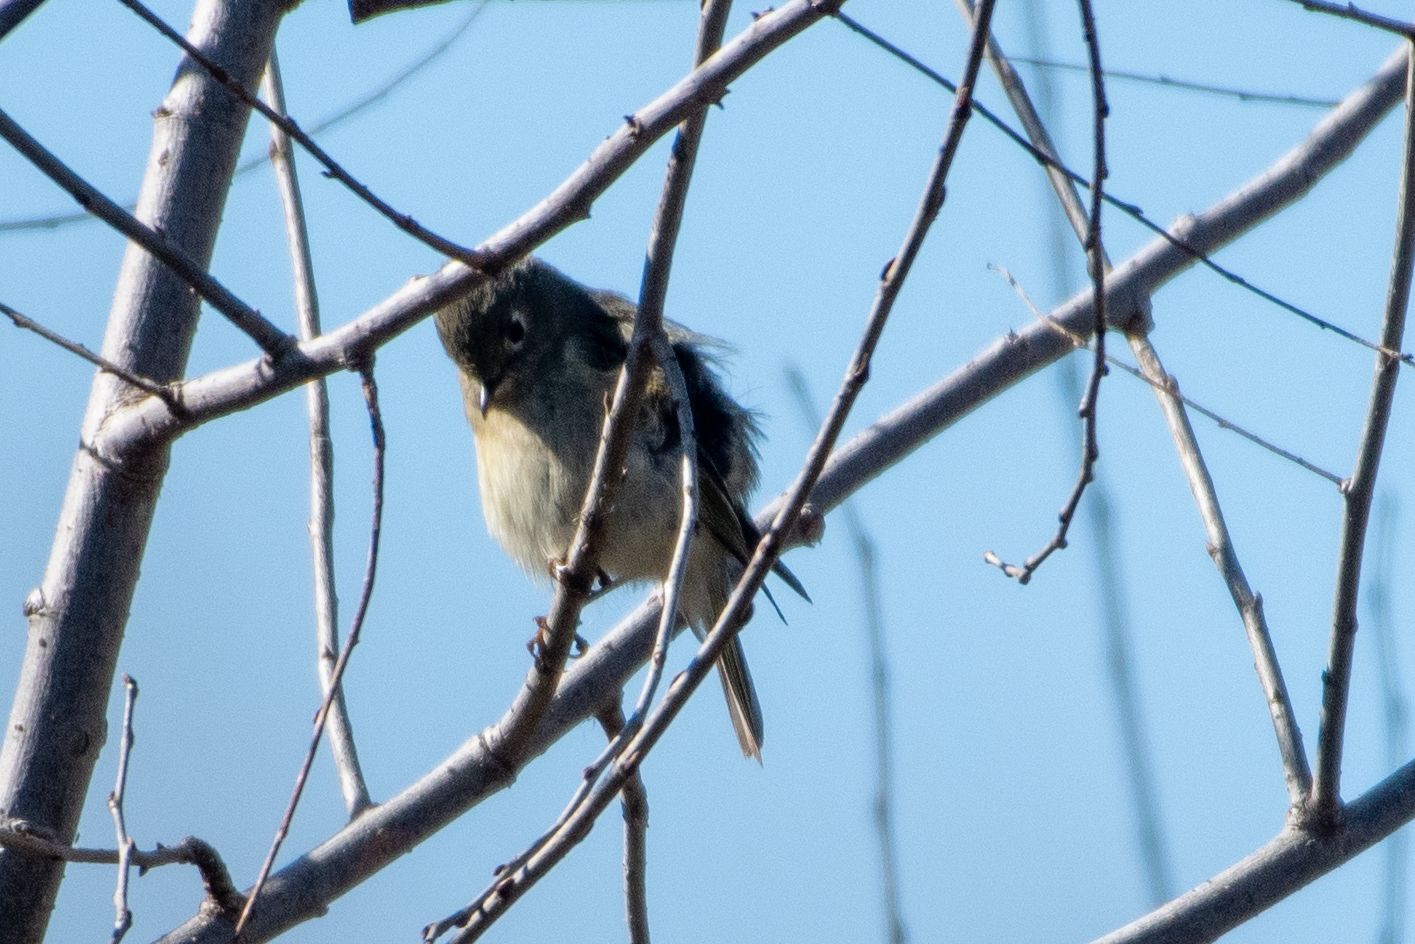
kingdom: Animalia
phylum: Chordata
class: Aves
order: Passeriformes
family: Regulidae
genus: Regulus
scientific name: Regulus calendula
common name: Ruby-crowned kinglet
